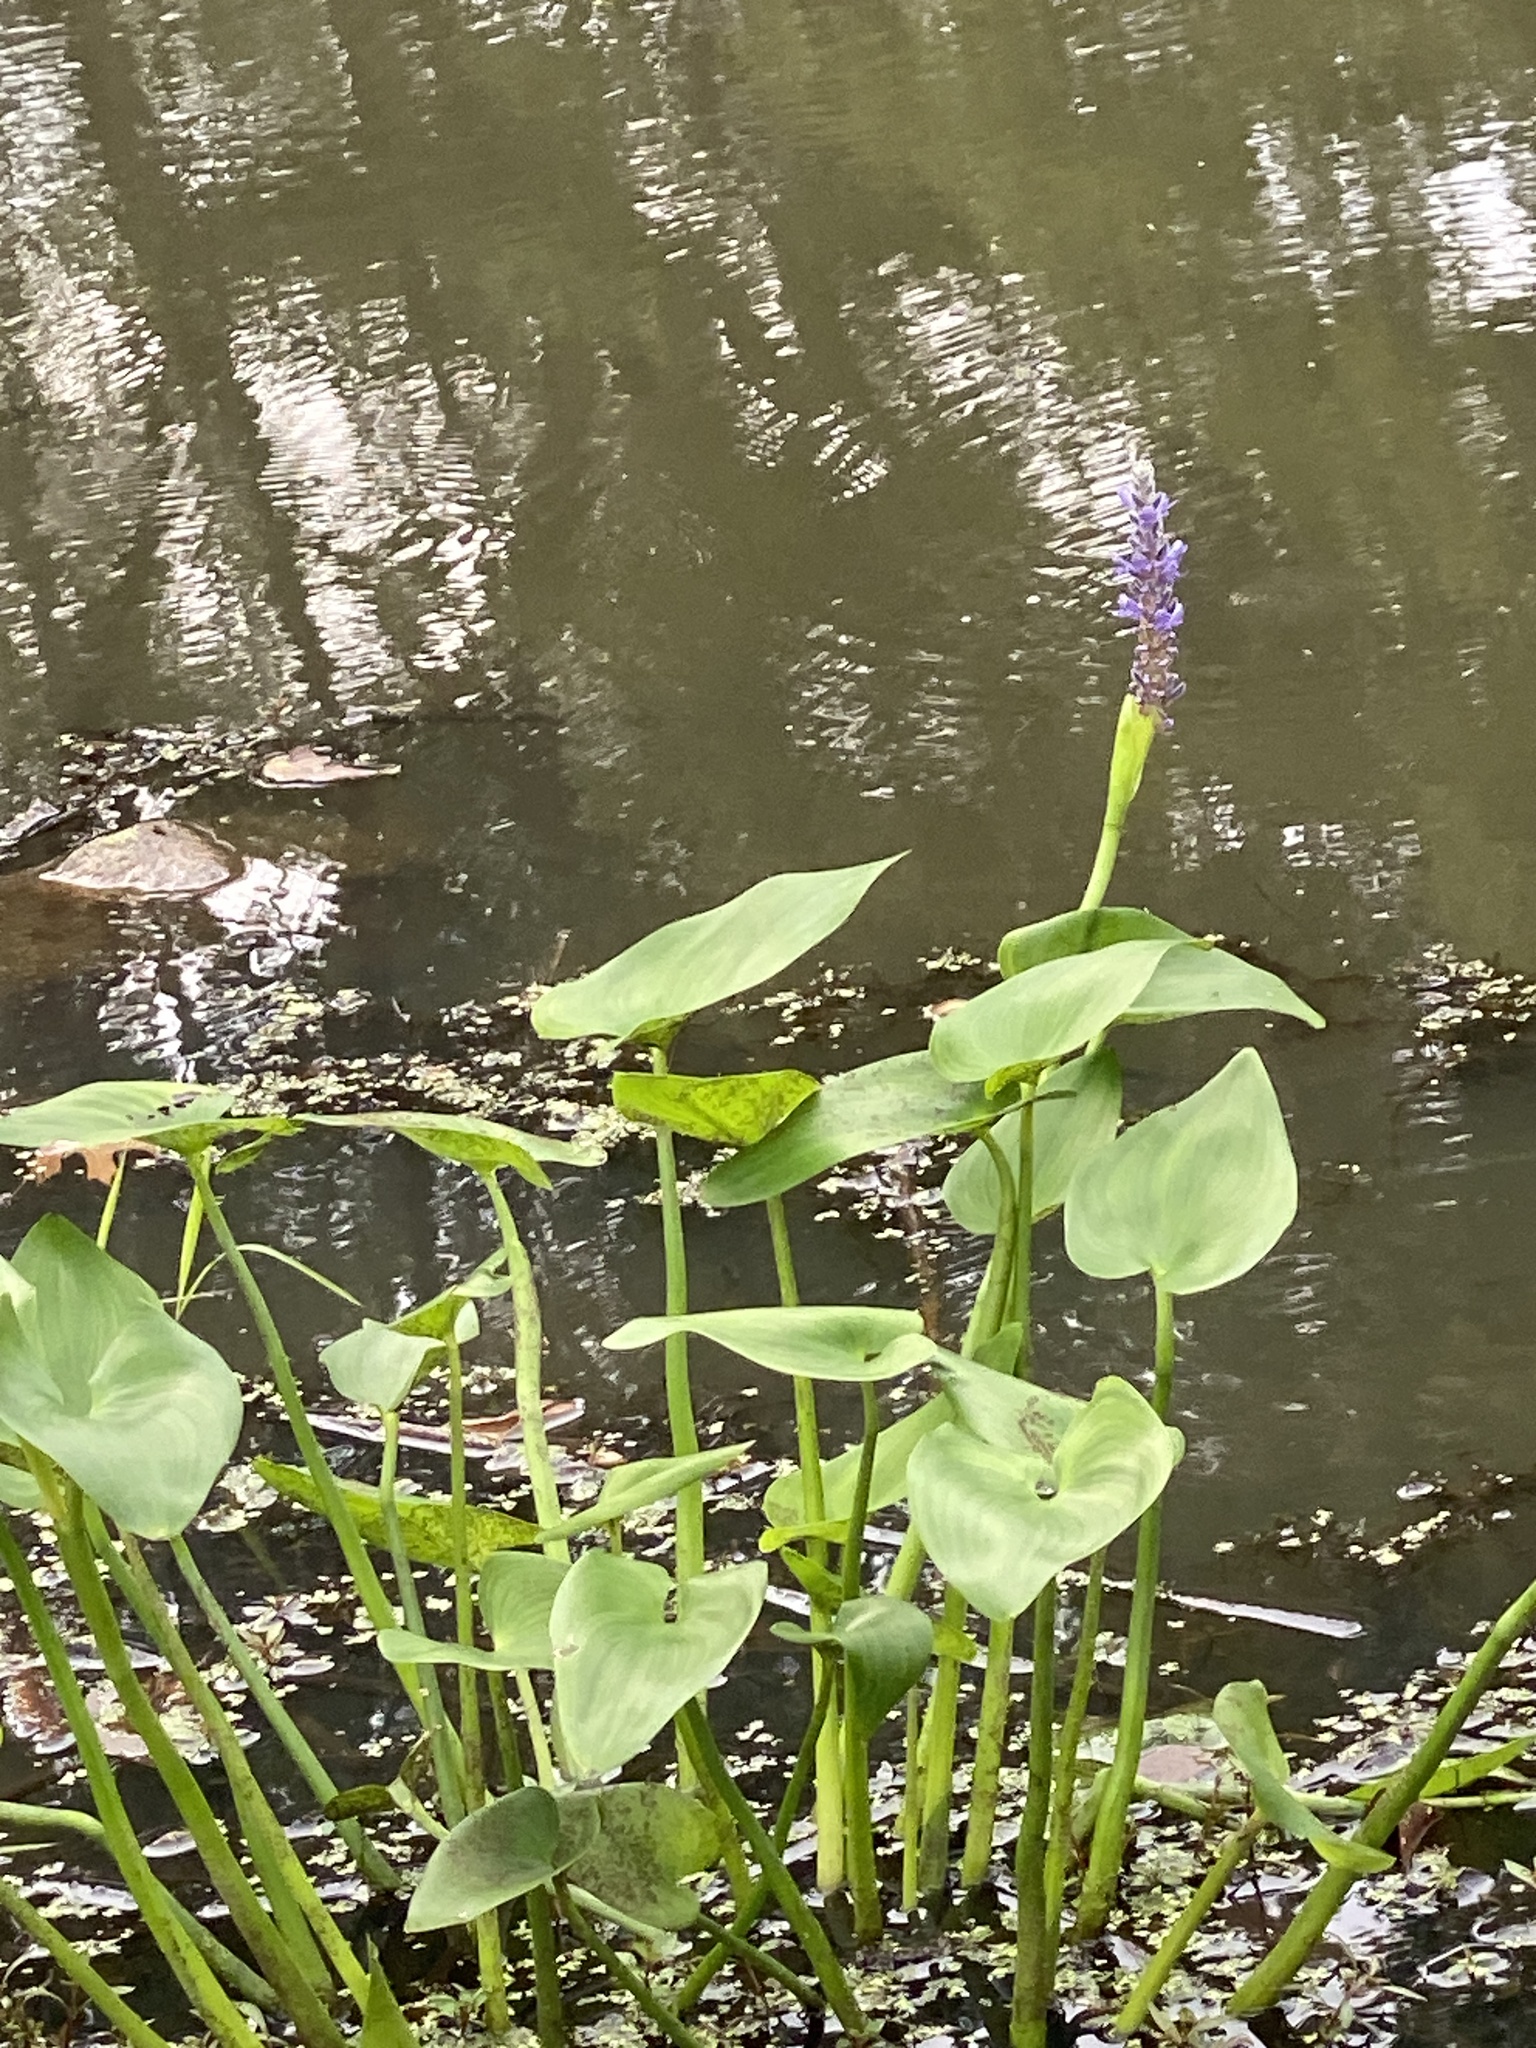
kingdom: Plantae
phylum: Tracheophyta
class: Liliopsida
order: Commelinales
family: Pontederiaceae
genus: Pontederia
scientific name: Pontederia cordata
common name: Pickerelweed
